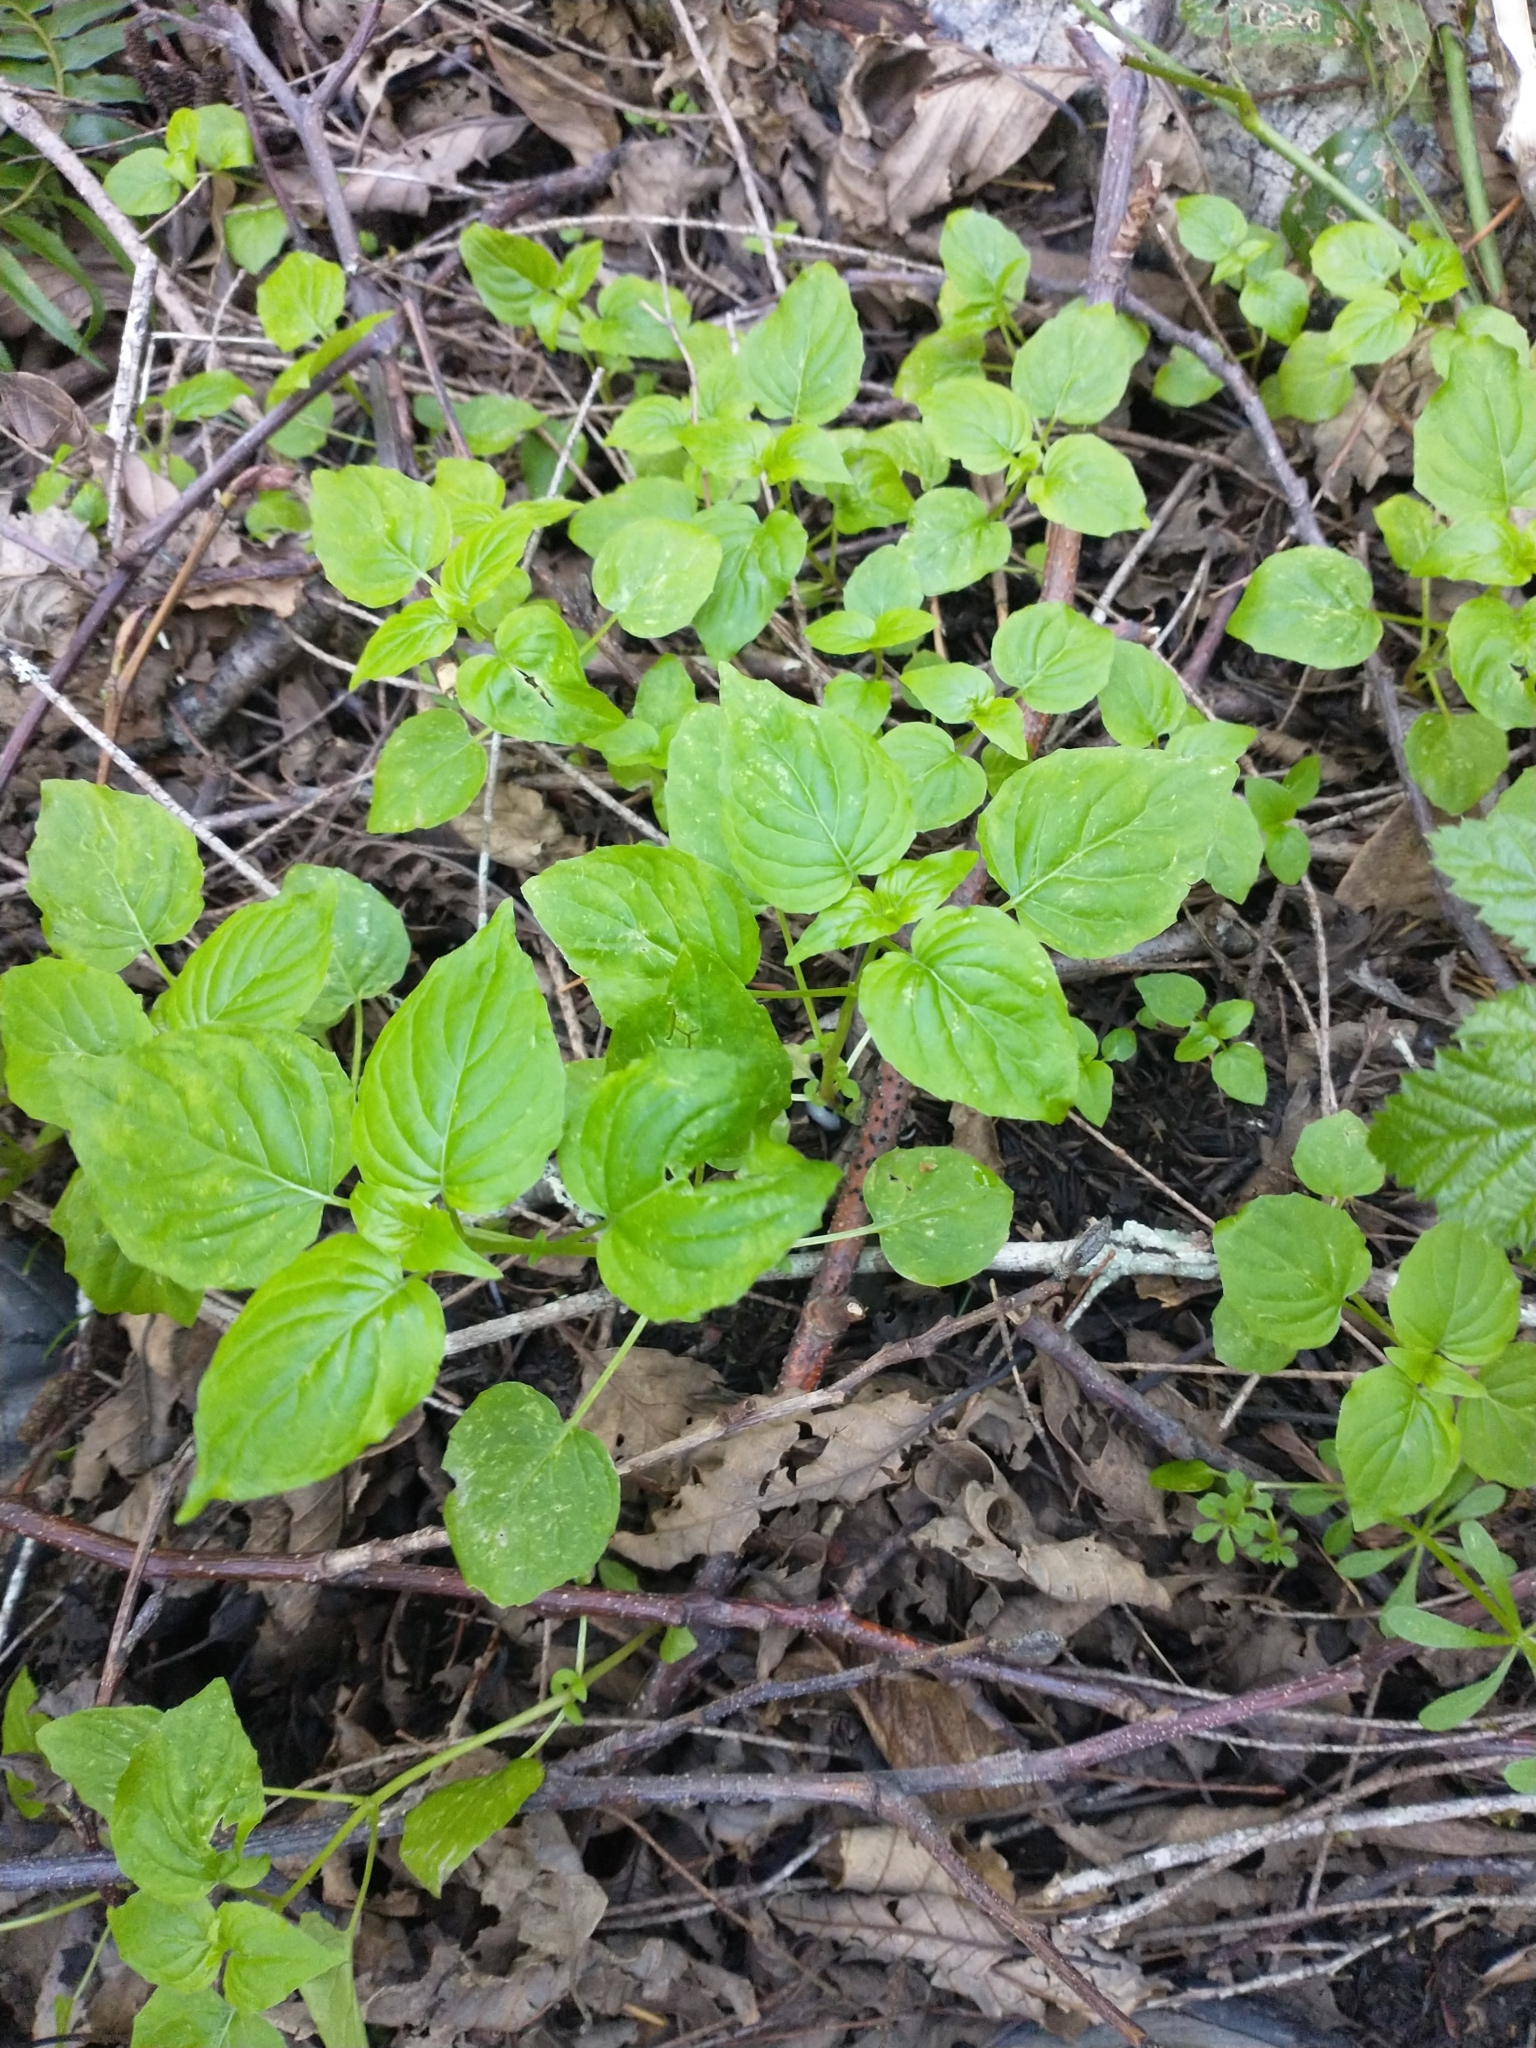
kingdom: Plantae
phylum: Tracheophyta
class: Magnoliopsida
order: Myrtales
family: Onagraceae
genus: Circaea
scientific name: Circaea alpina
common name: Alpine enchanter's-nightshade
